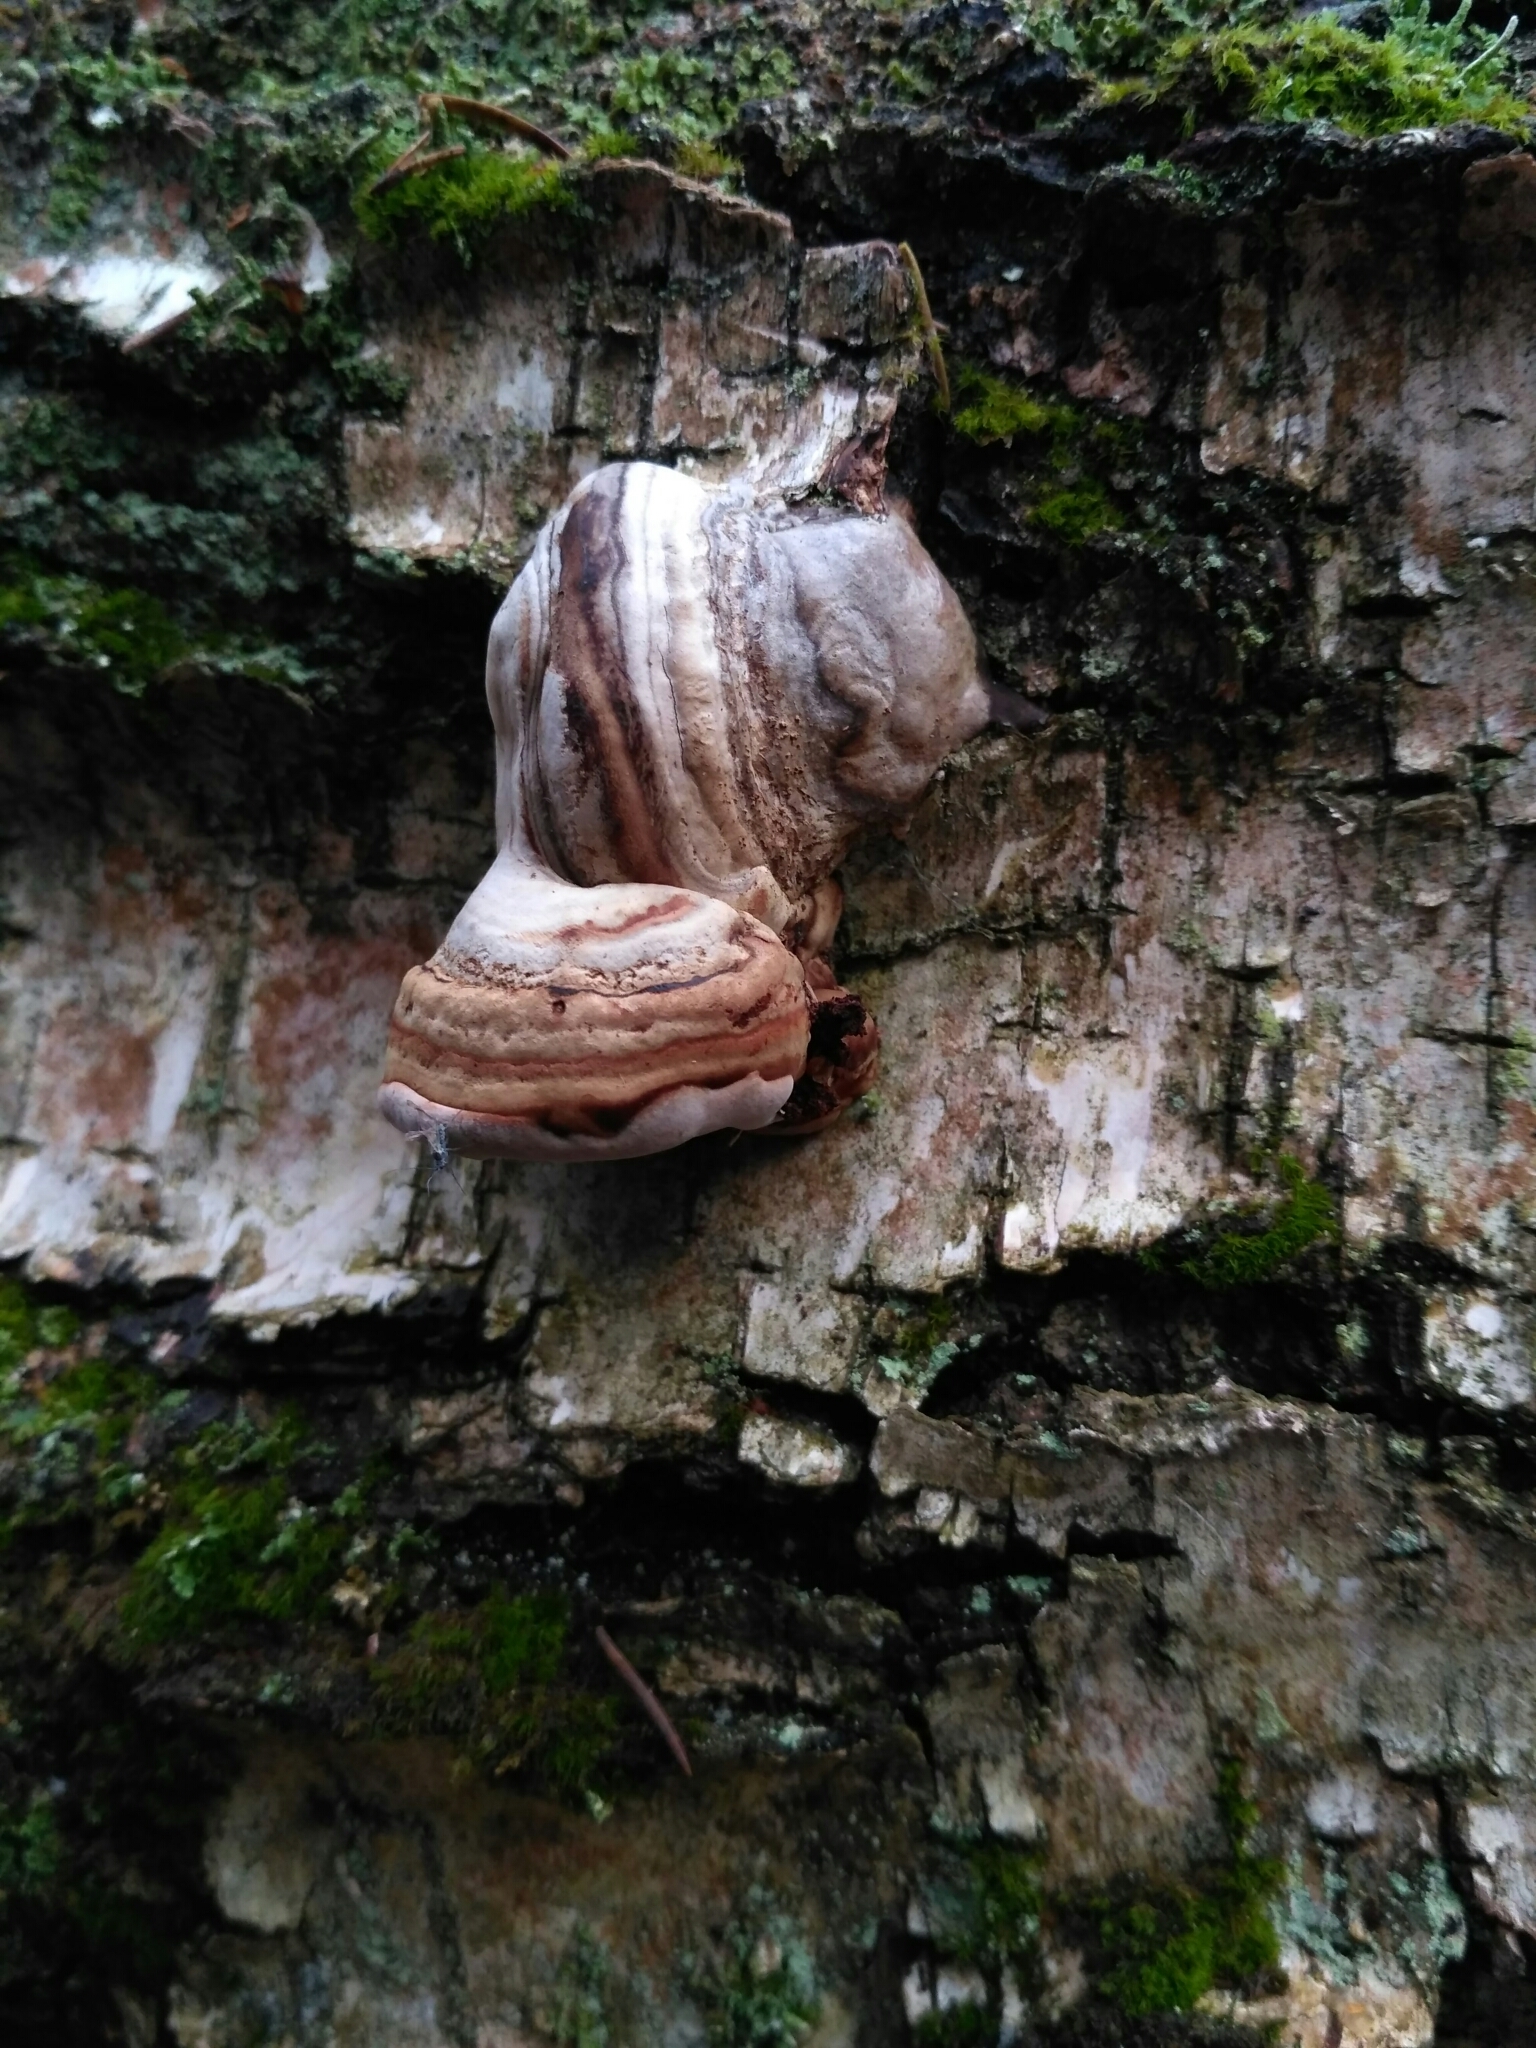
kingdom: Fungi
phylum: Basidiomycota
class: Agaricomycetes
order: Polyporales
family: Polyporaceae
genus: Fomes
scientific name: Fomes fomentarius
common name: Hoof fungus
